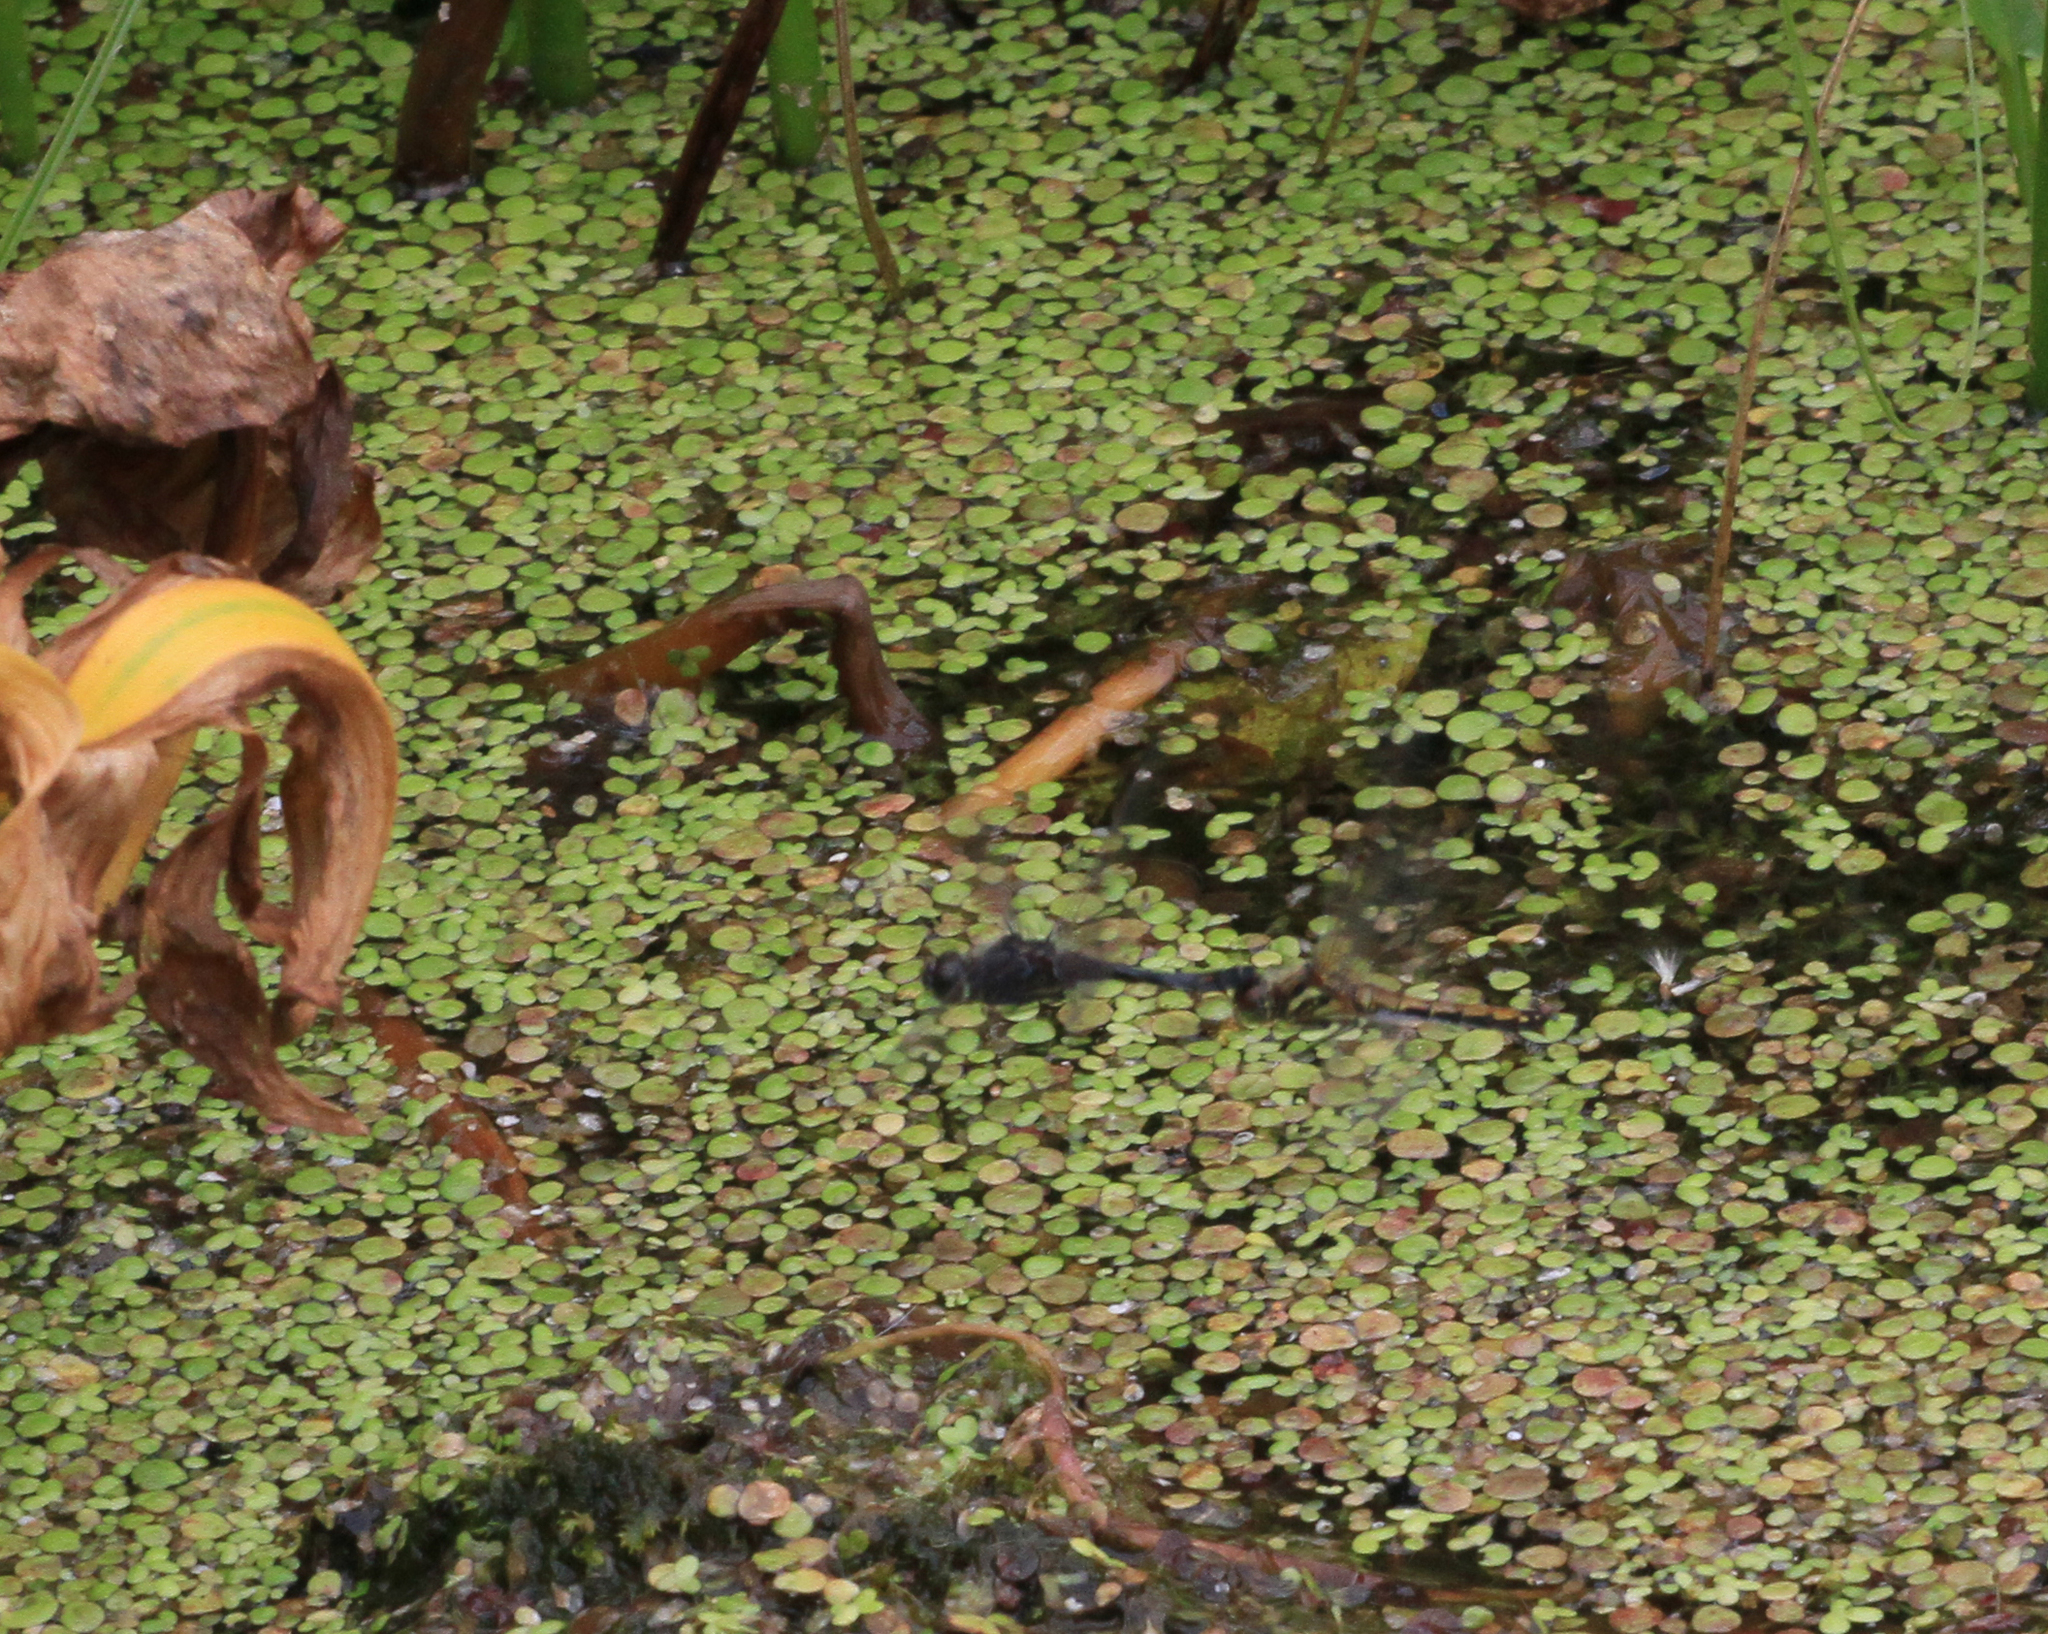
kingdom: Animalia
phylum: Arthropoda
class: Insecta
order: Odonata
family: Libellulidae
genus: Sympetrum
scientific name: Sympetrum danae
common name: Black darter
